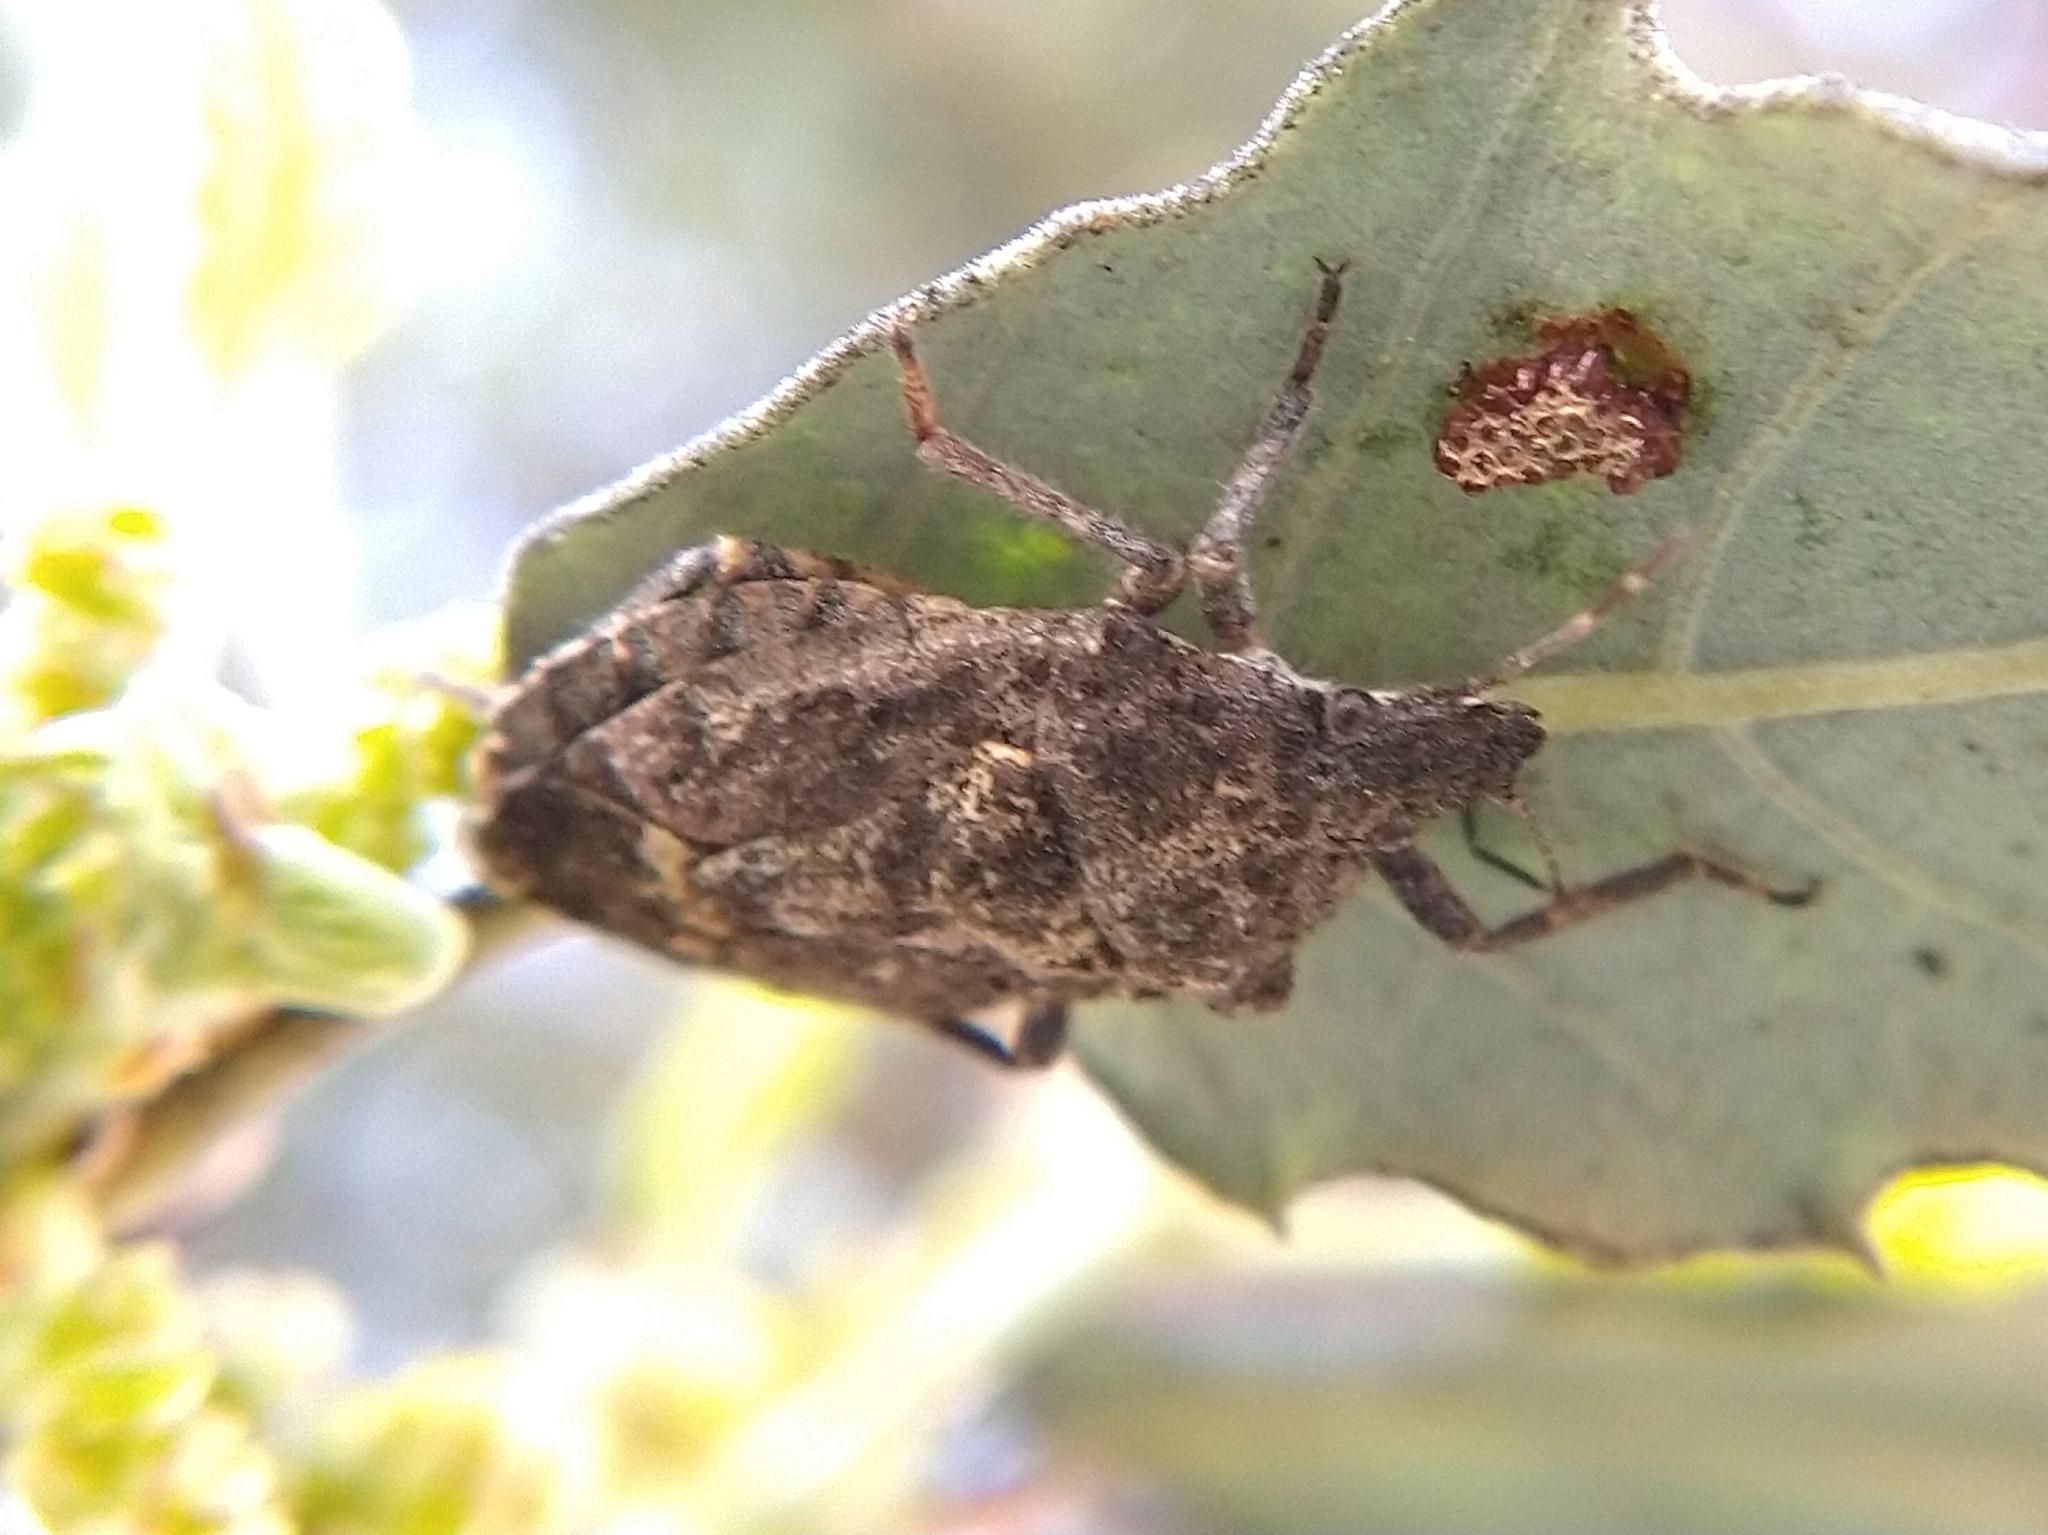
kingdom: Animalia
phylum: Arthropoda
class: Insecta
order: Hemiptera
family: Pentatomidae
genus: Brochymena
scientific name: Brochymena
